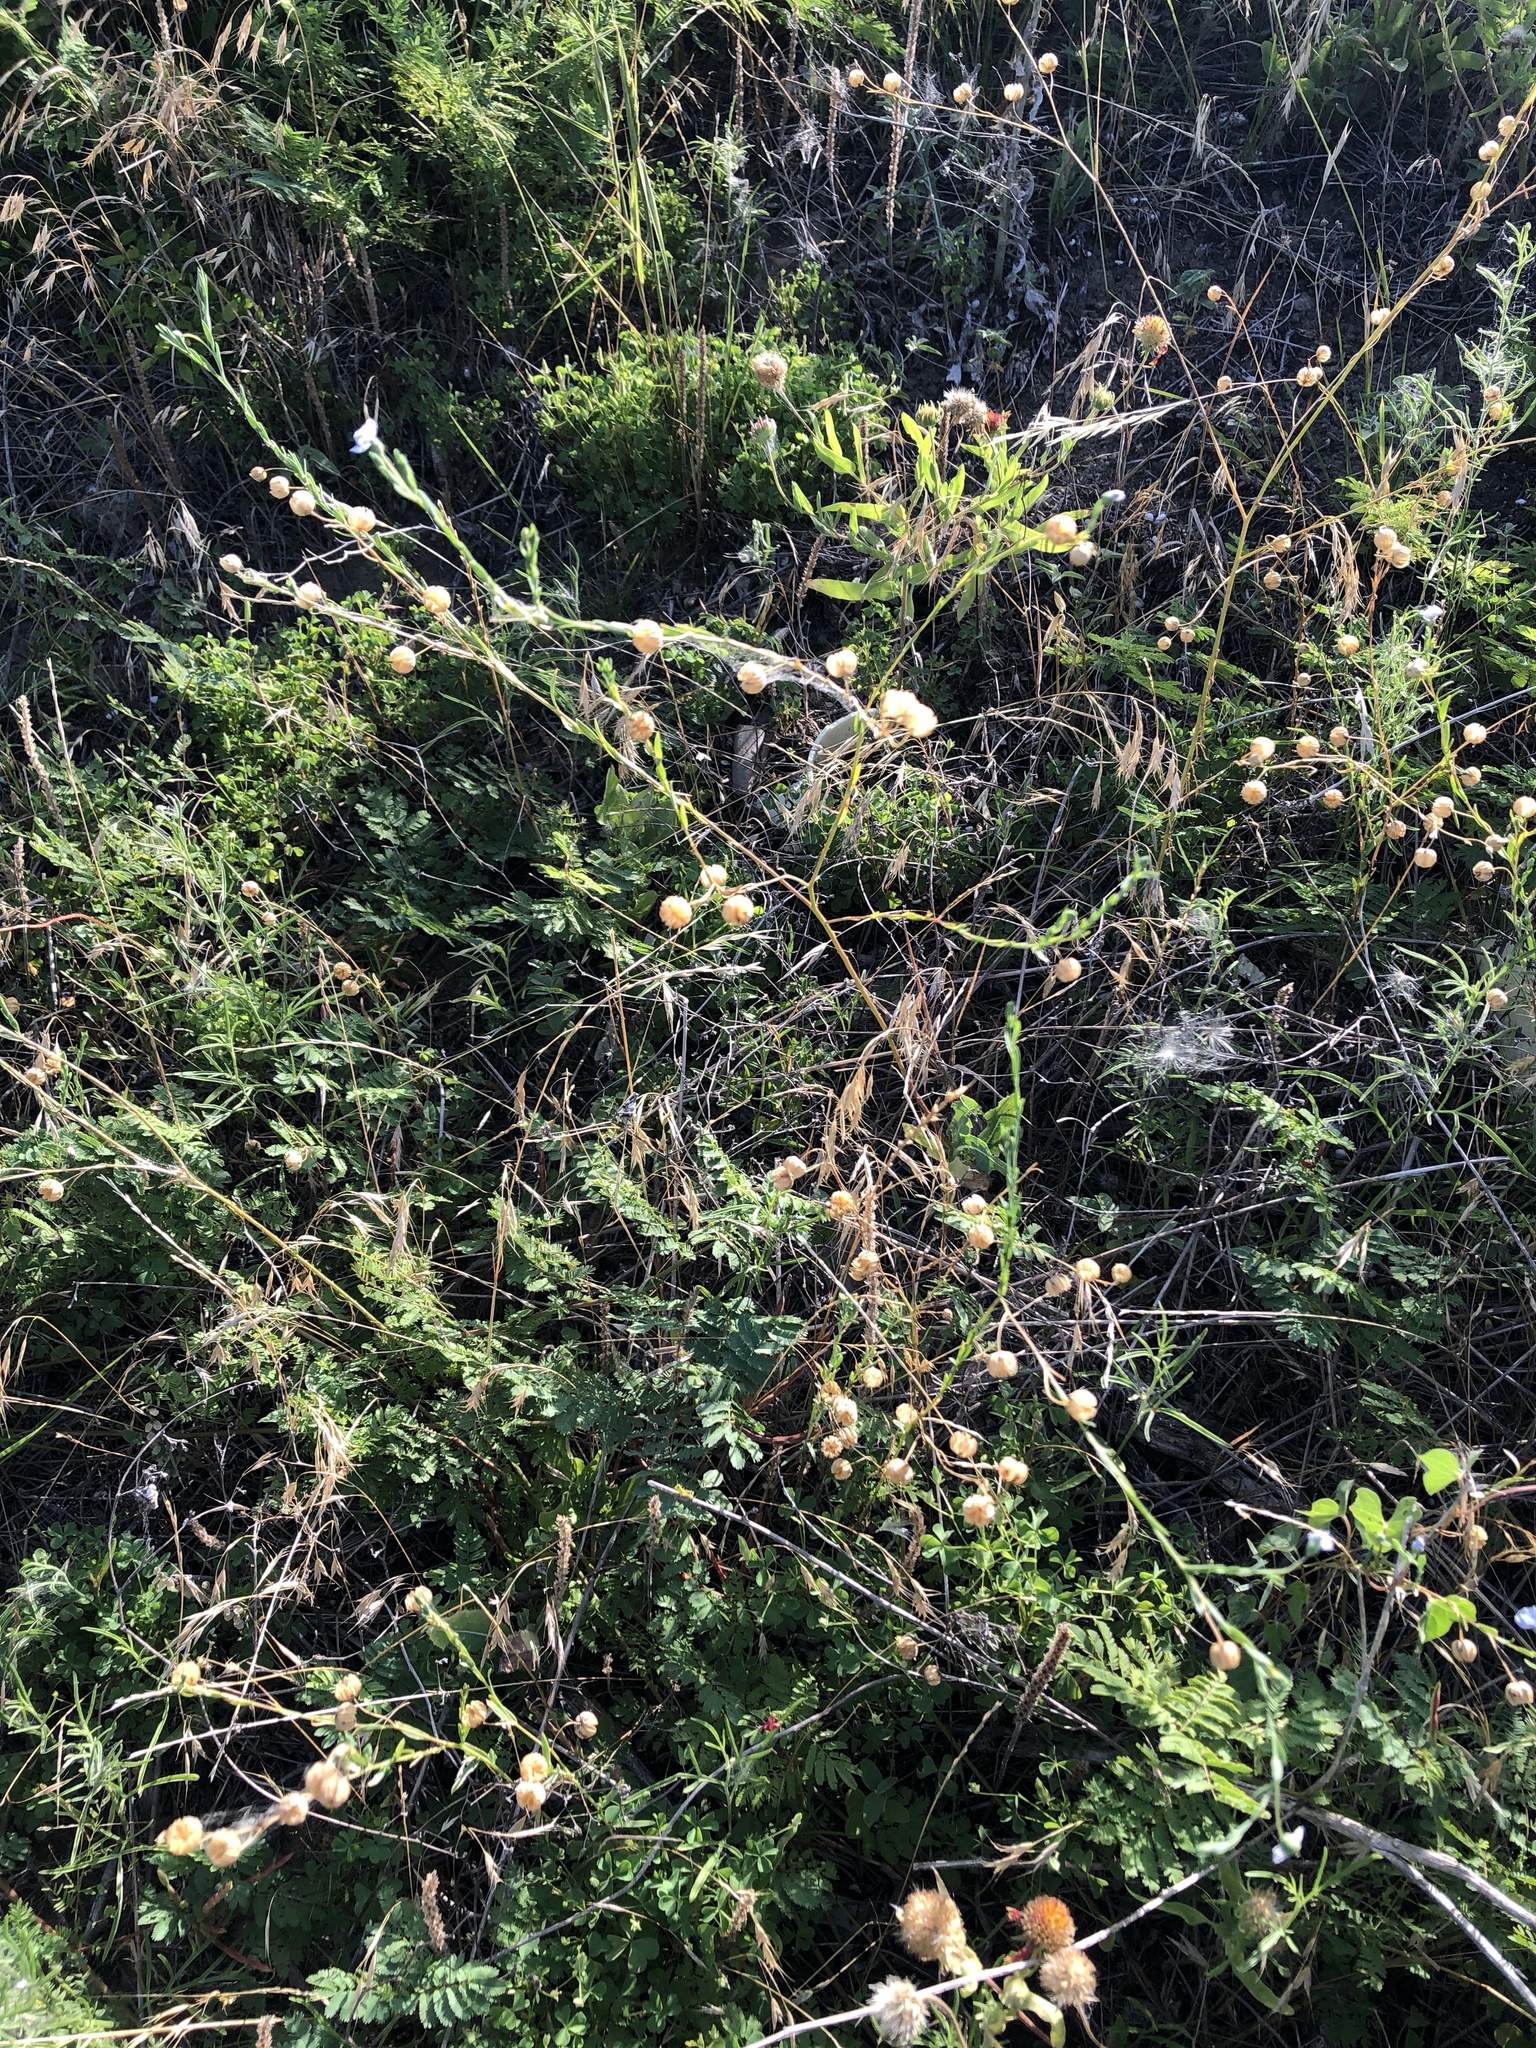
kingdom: Plantae
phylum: Tracheophyta
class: Magnoliopsida
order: Malpighiales
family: Linaceae
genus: Linum
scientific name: Linum pratense
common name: Norton's flax
